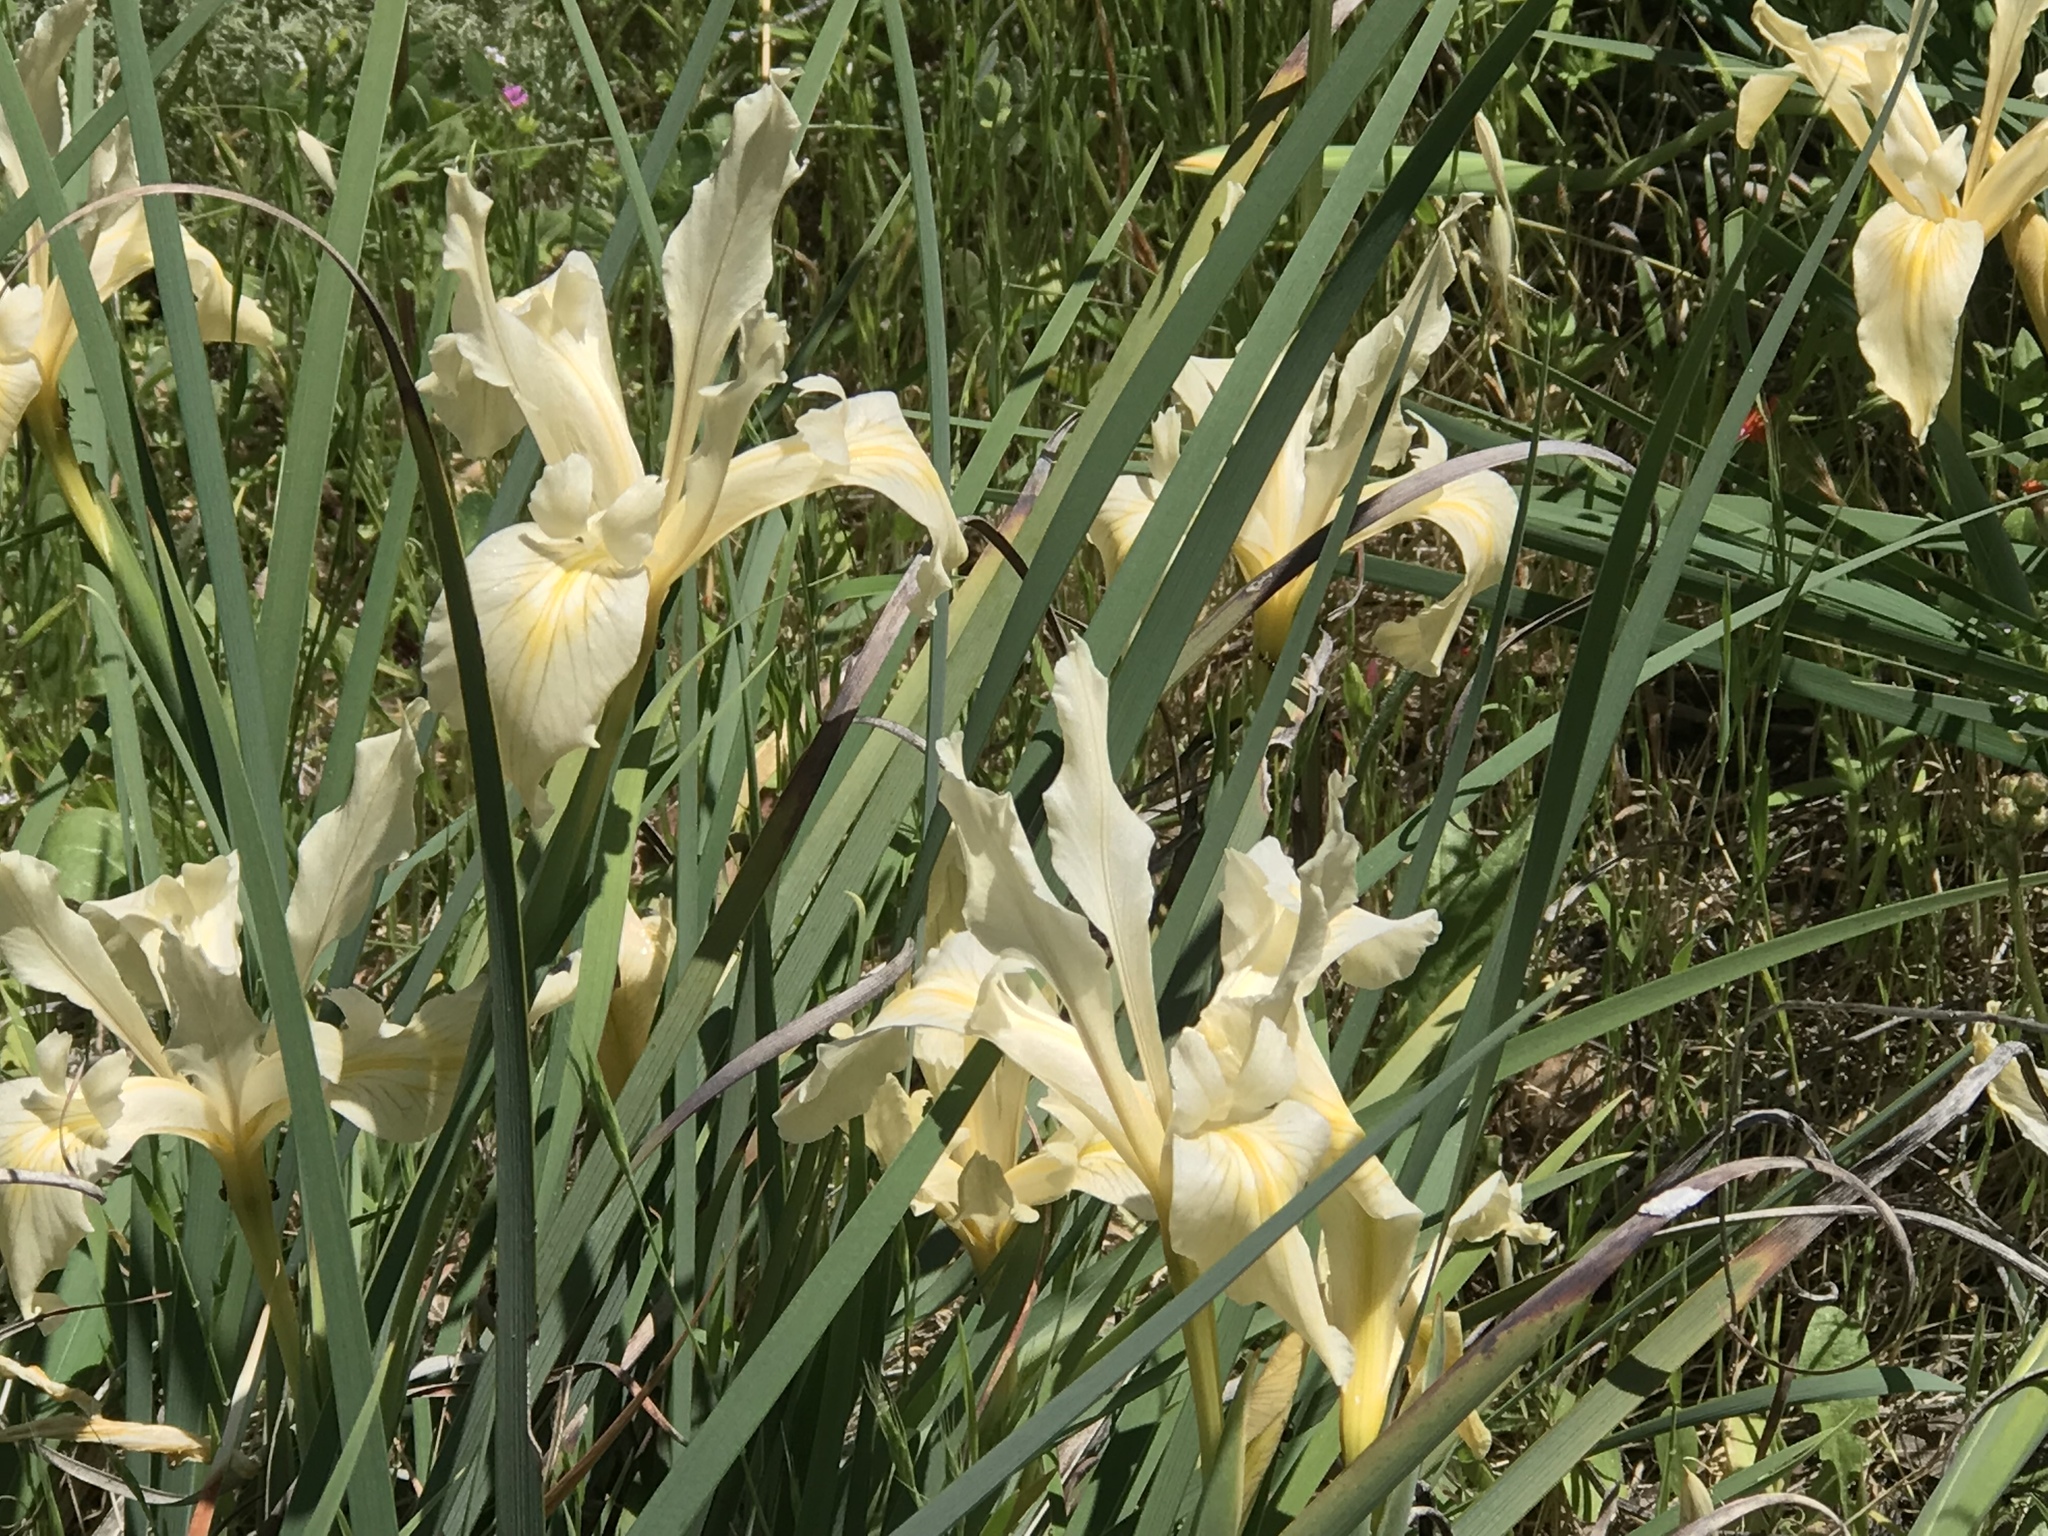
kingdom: Plantae
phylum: Tracheophyta
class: Liliopsida
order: Asparagales
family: Iridaceae
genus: Iris
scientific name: Iris fernaldii
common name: Fernald's iris
